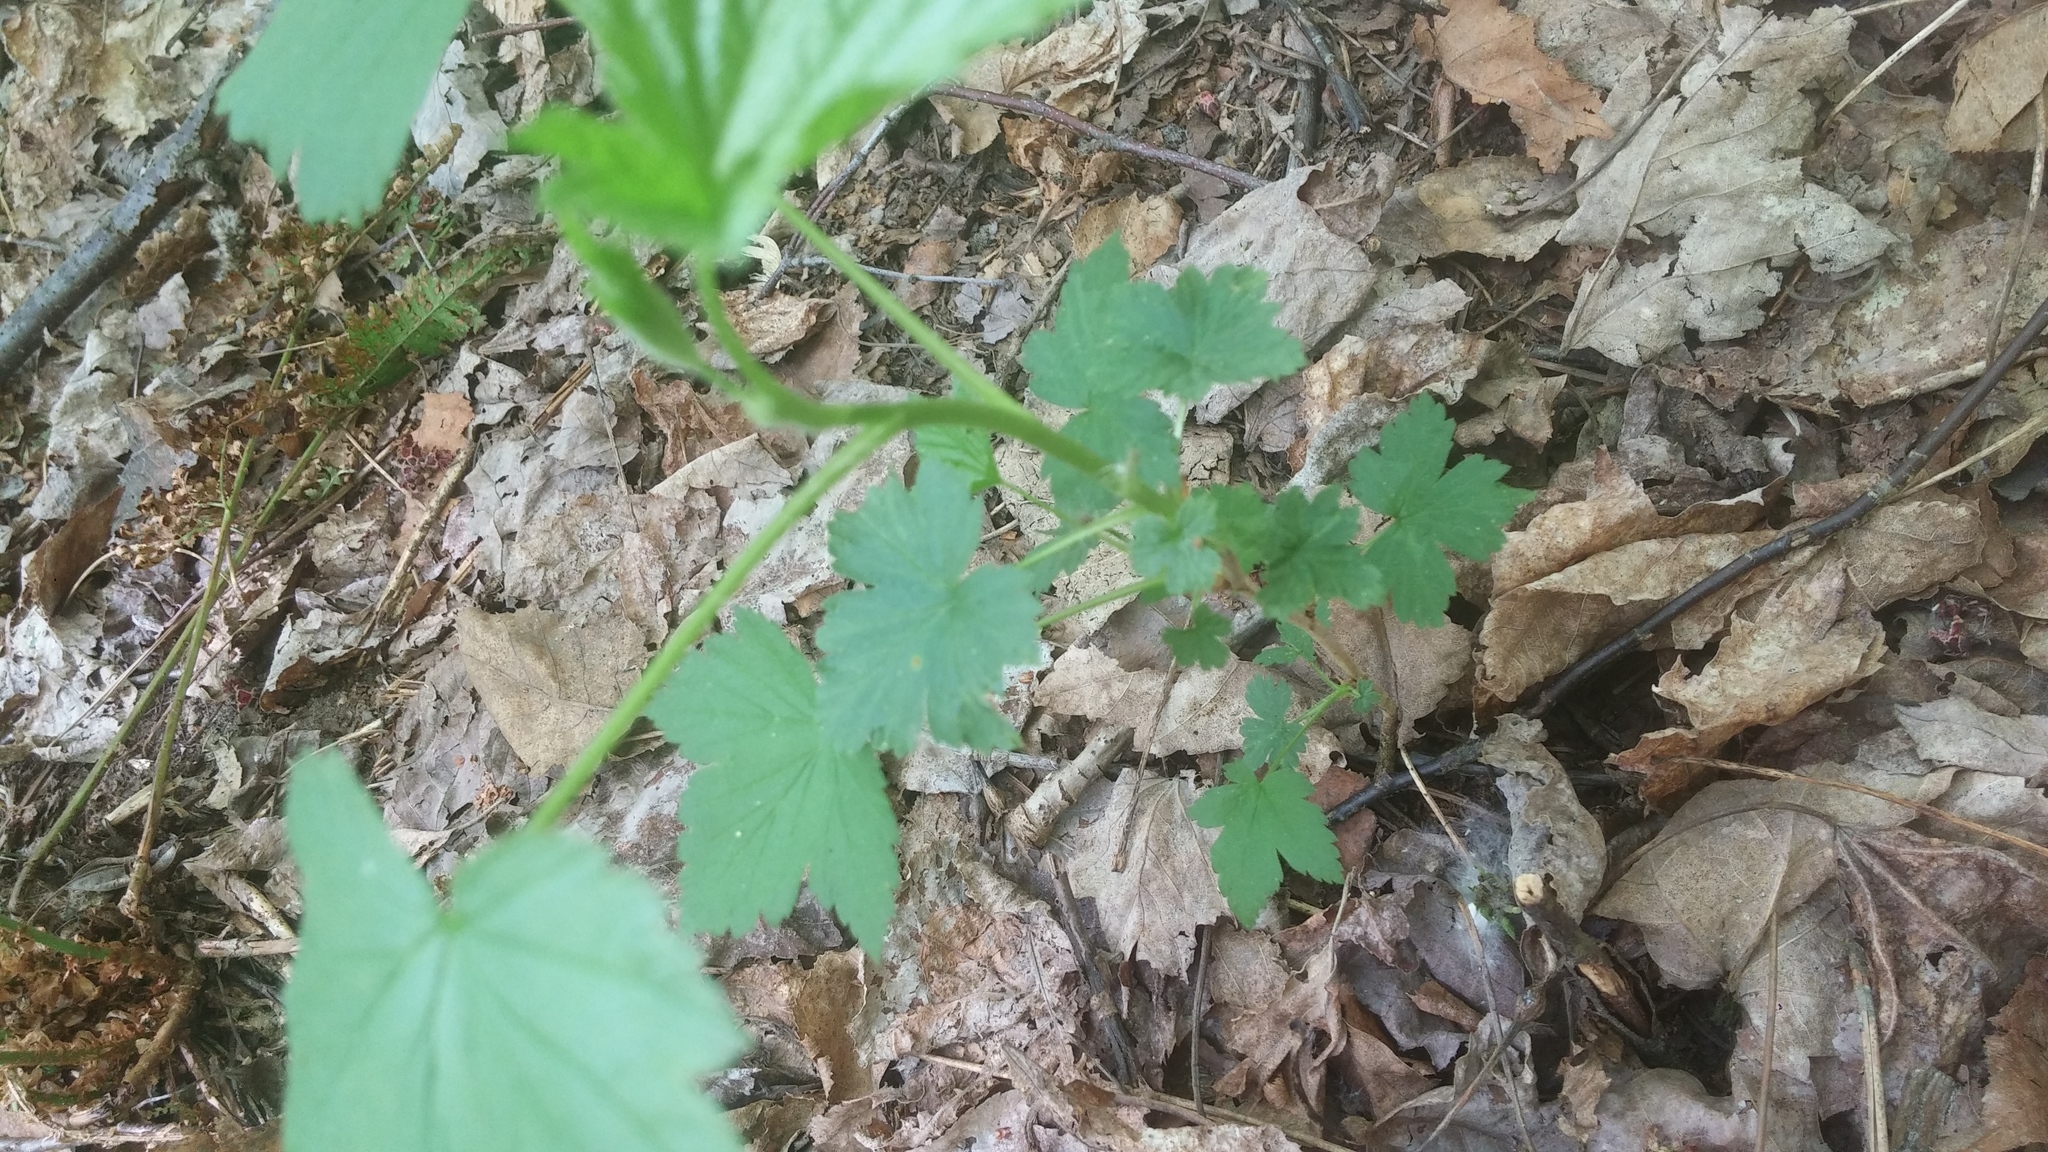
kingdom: Plantae
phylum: Tracheophyta
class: Magnoliopsida
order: Saxifragales
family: Grossulariaceae
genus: Ribes
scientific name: Ribes americanum
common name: American black currant
